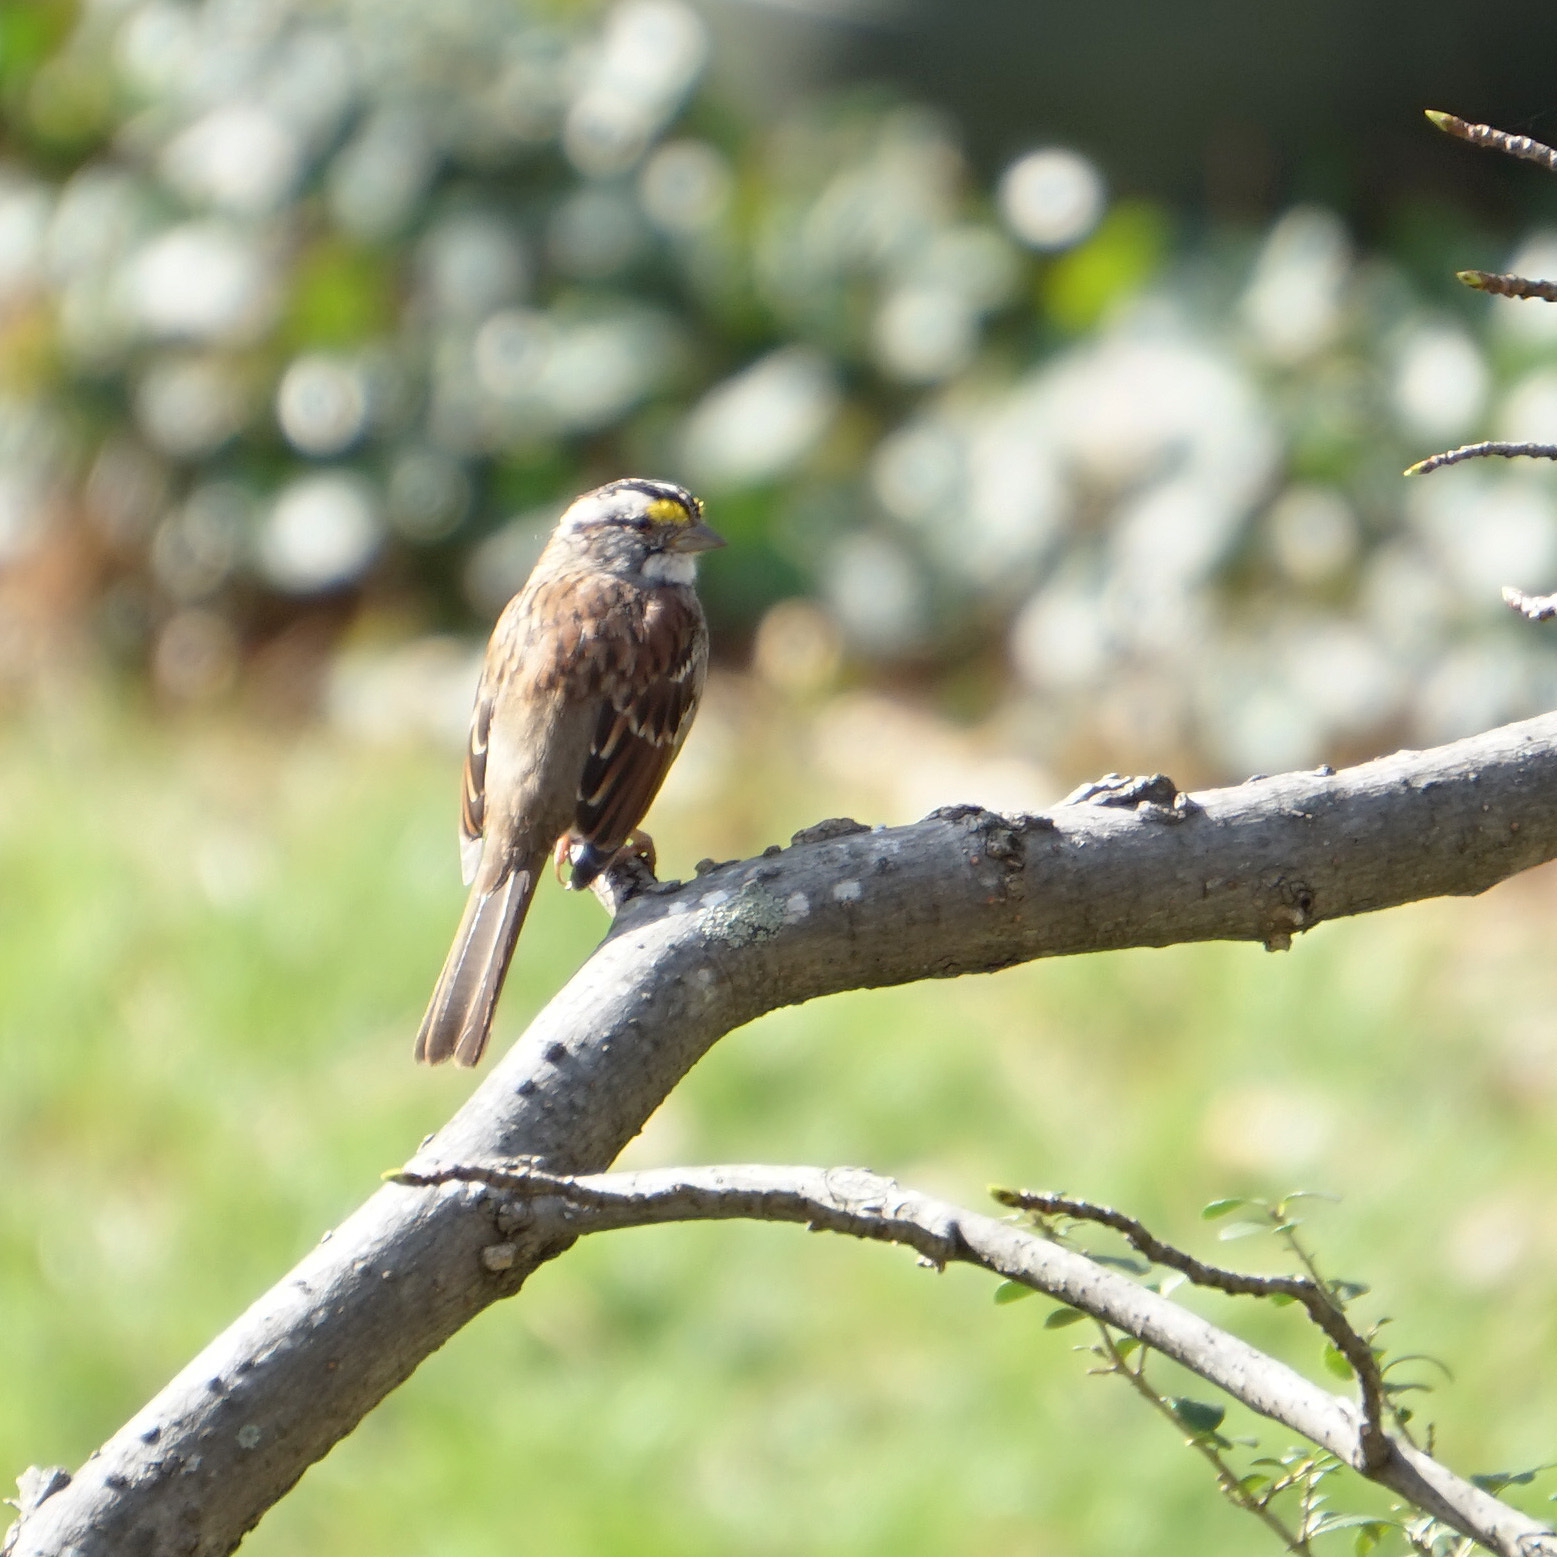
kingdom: Animalia
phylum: Chordata
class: Aves
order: Passeriformes
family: Passerellidae
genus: Zonotrichia
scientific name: Zonotrichia albicollis
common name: White-throated sparrow
